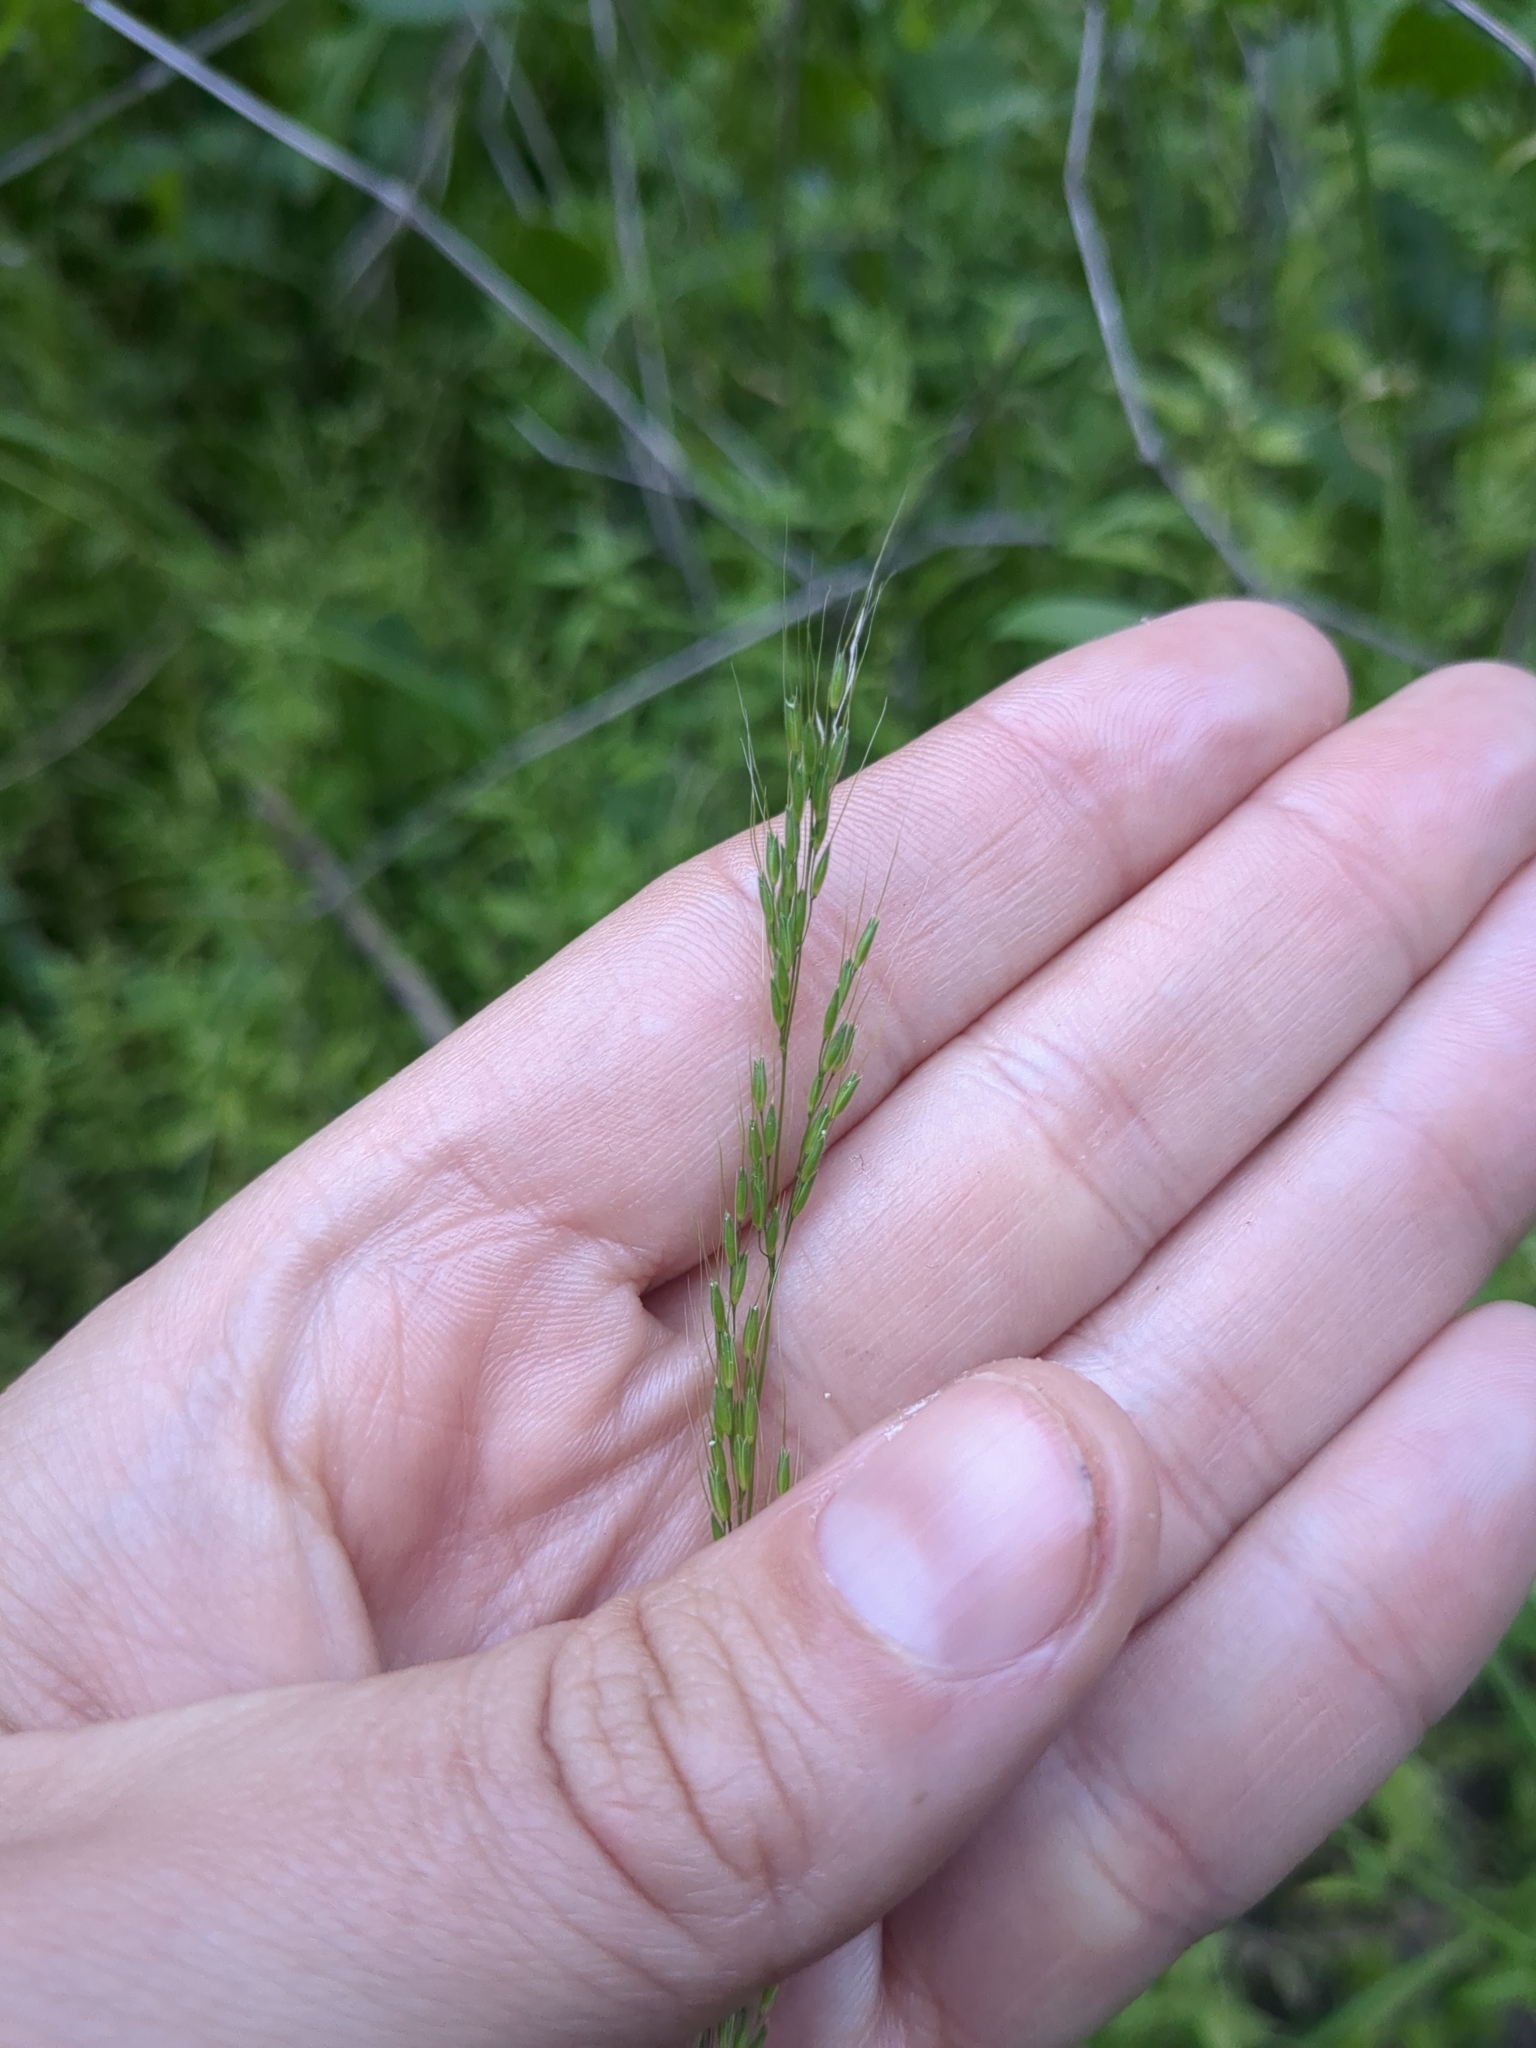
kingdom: Plantae
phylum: Tracheophyta
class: Liliopsida
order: Poales
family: Poaceae
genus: Limnodea
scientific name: Limnodea arkansana
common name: Ozark-grass
